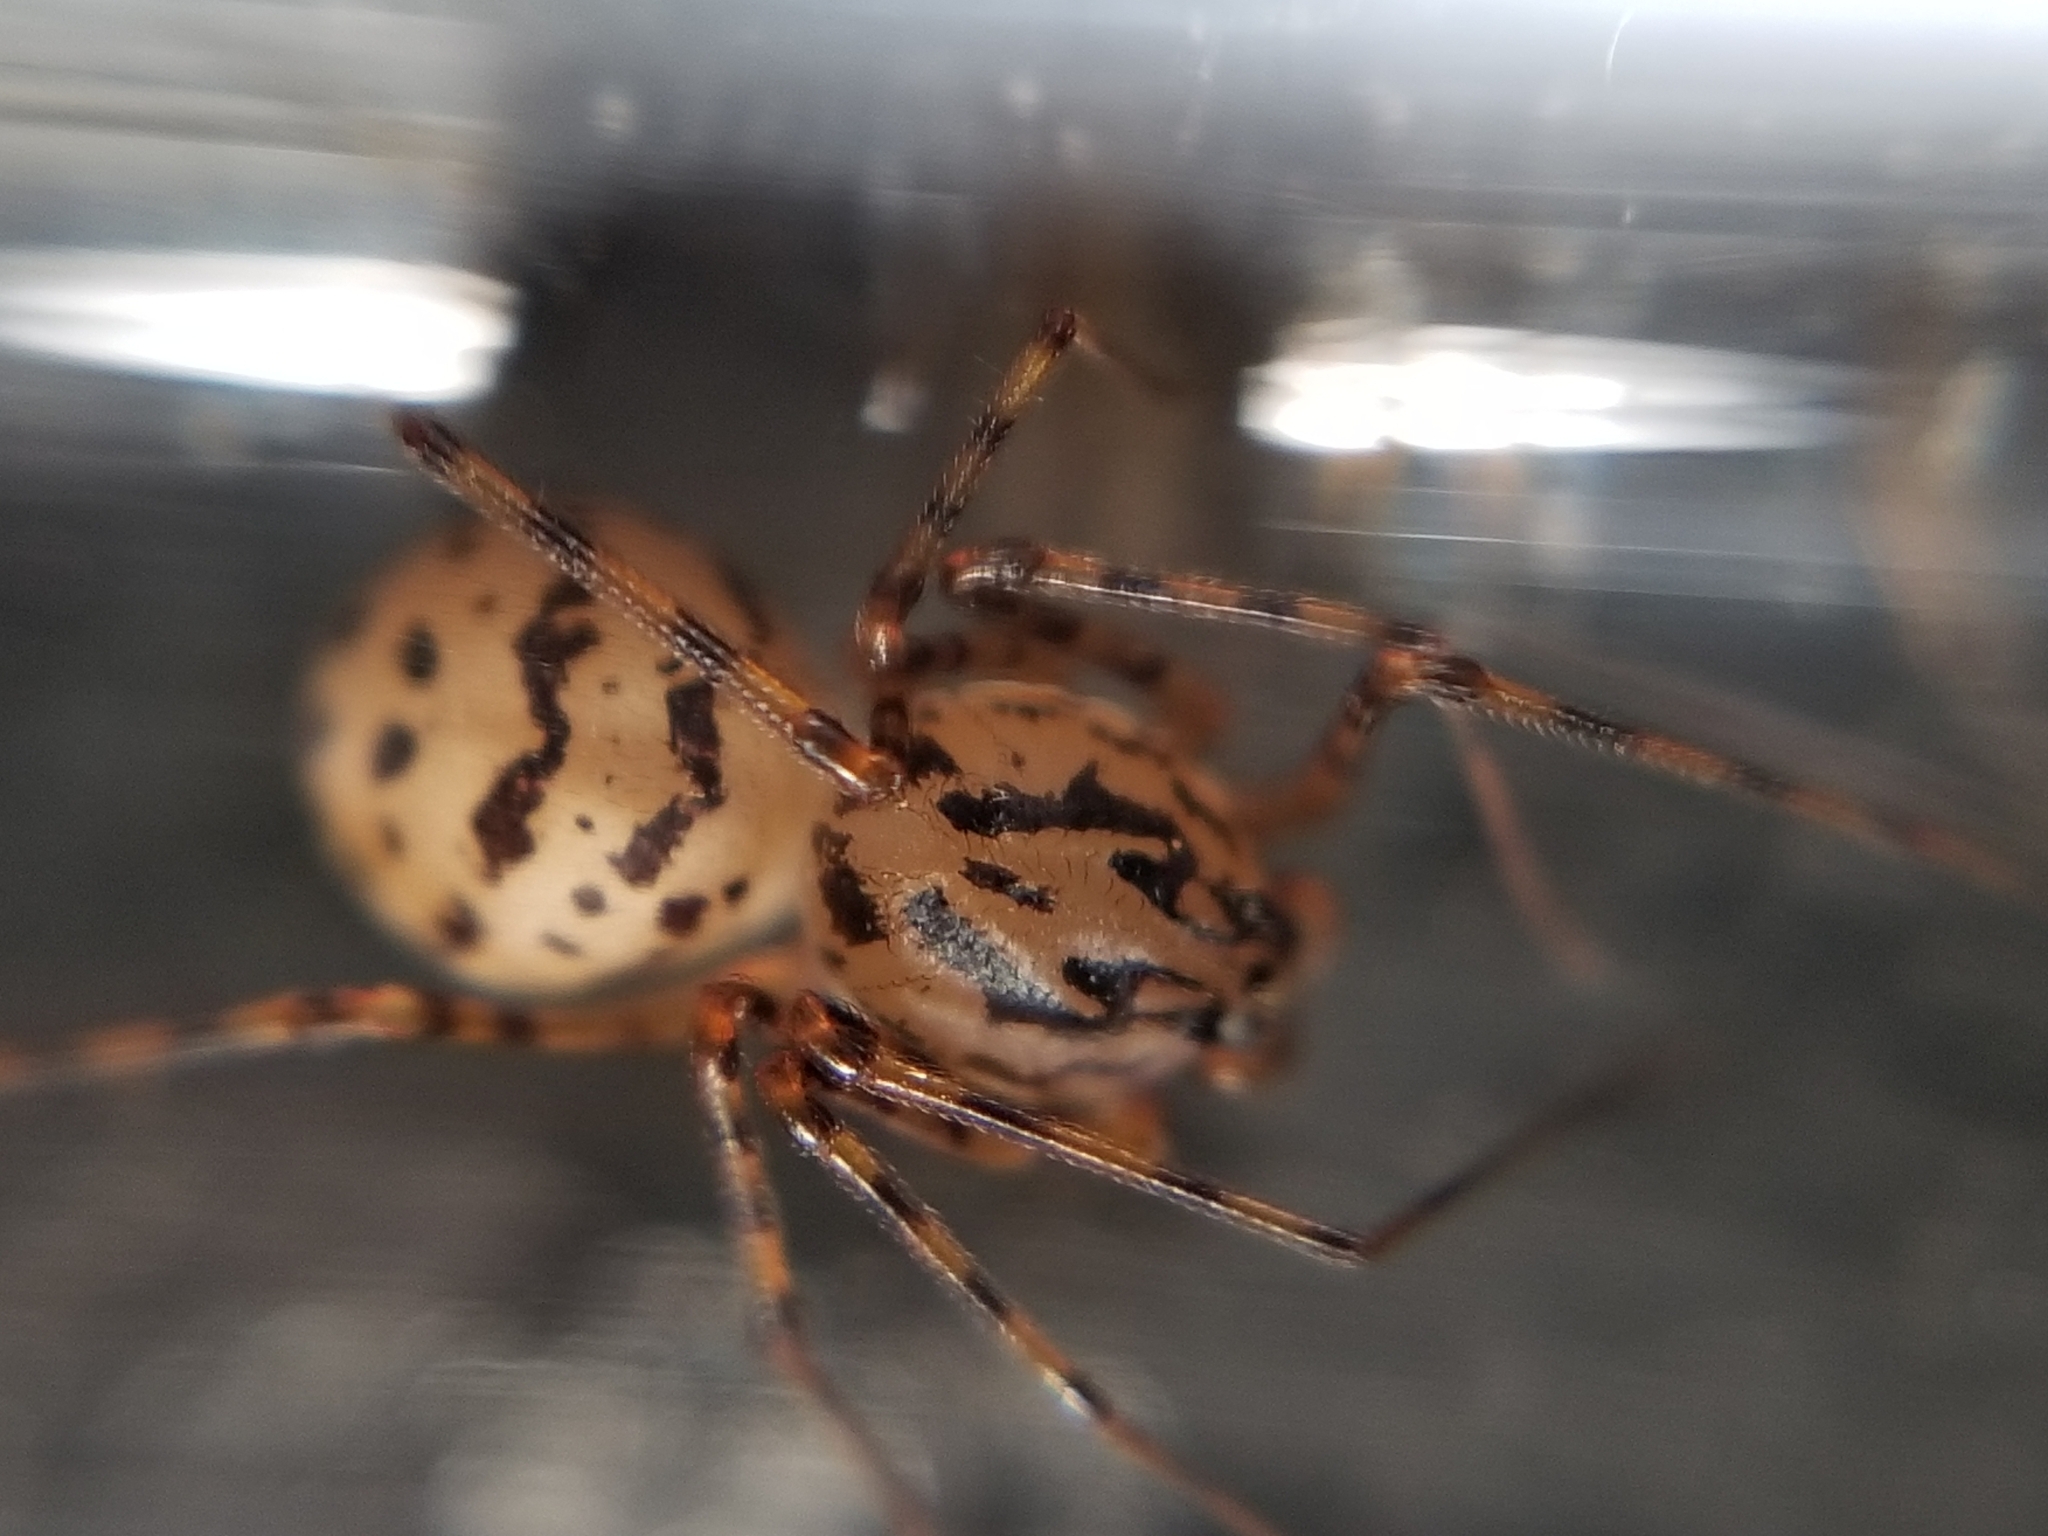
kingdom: Animalia
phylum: Arthropoda
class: Arachnida
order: Araneae
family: Scytodidae
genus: Scytodes
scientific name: Scytodes thoracica
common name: Spitting spider
